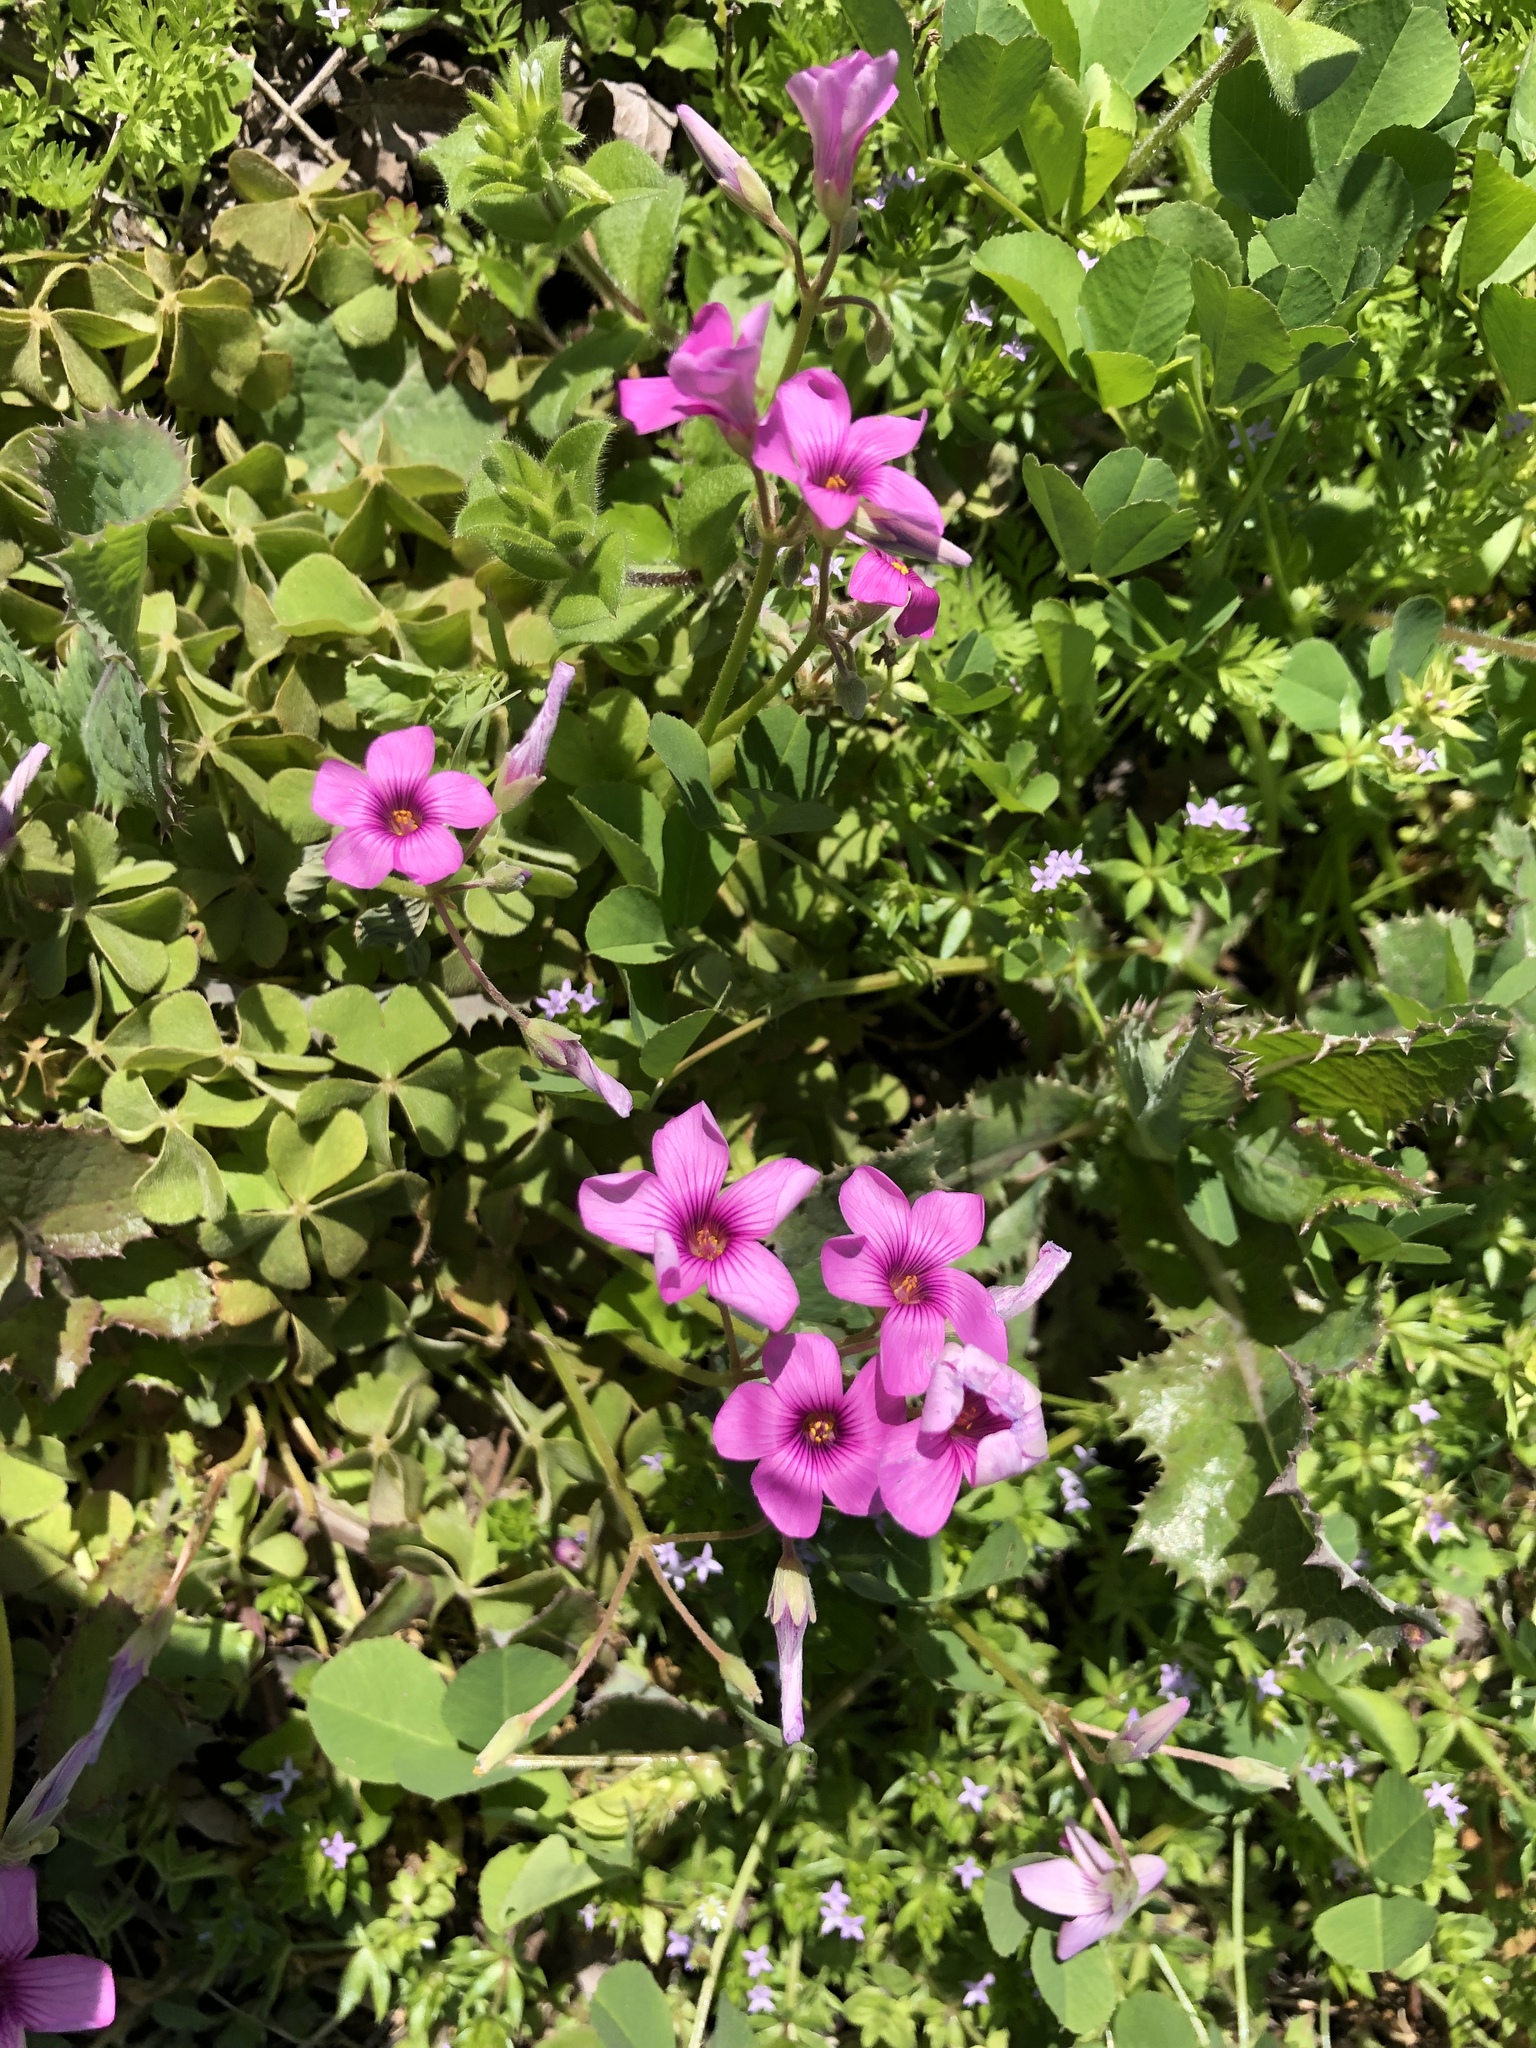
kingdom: Plantae
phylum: Tracheophyta
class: Magnoliopsida
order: Oxalidales
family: Oxalidaceae
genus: Oxalis
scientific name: Oxalis articulata
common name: Pink-sorrel
